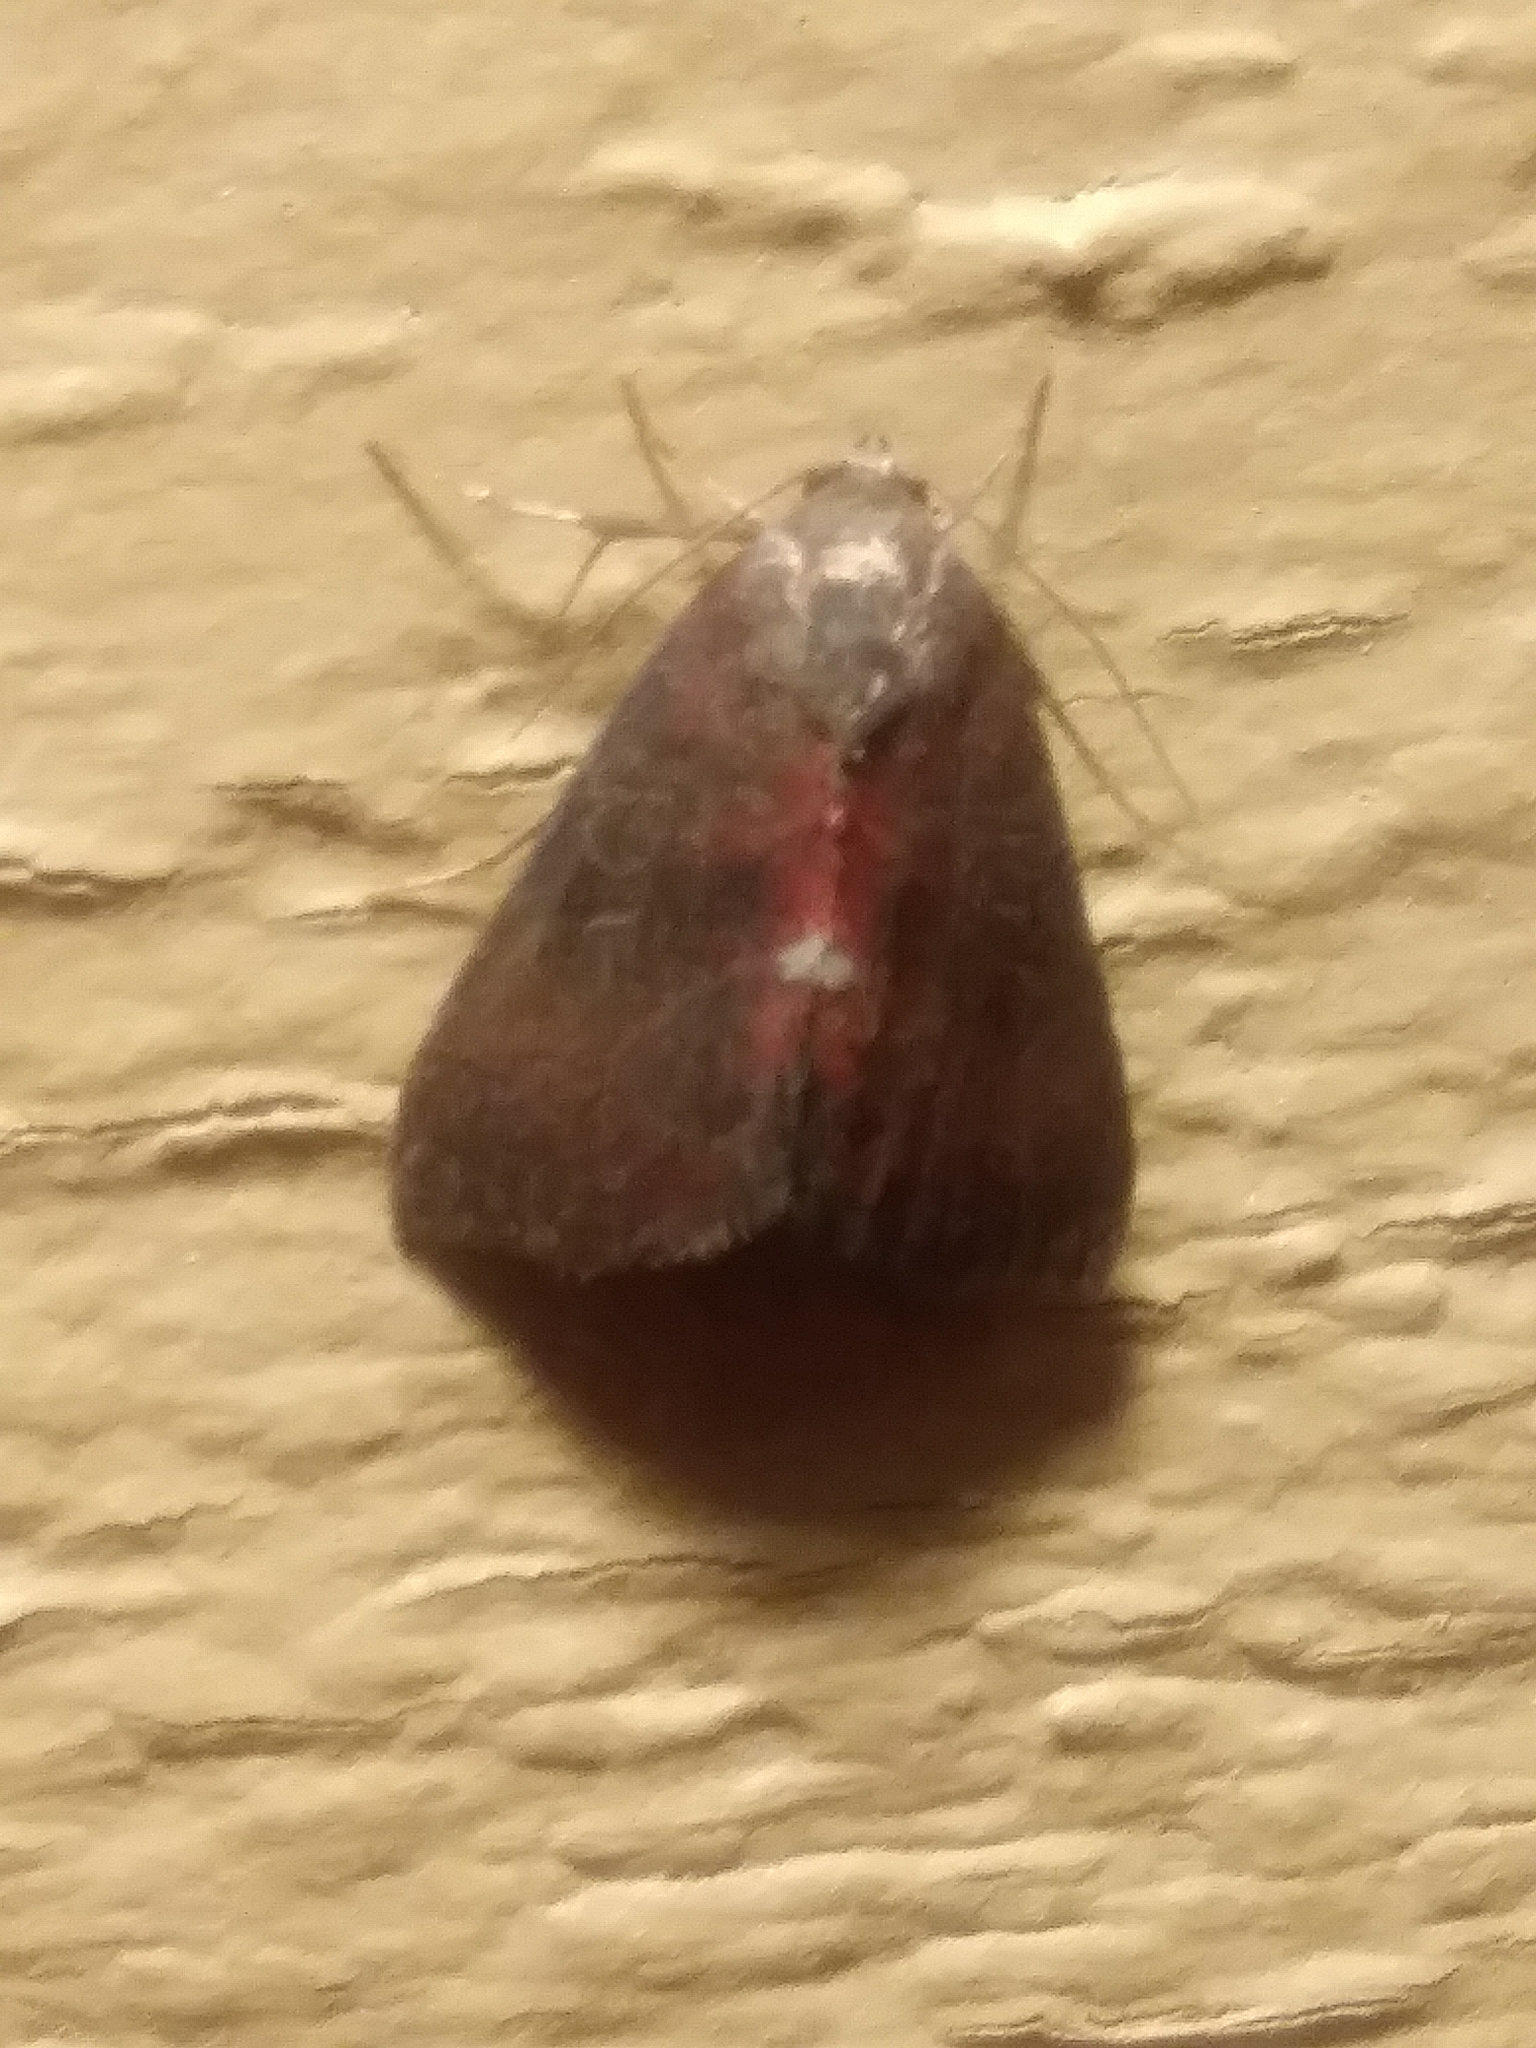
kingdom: Animalia
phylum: Arthropoda
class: Insecta
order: Lepidoptera
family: Noctuidae
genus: Galgula
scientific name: Galgula partita
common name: Wedgeling
